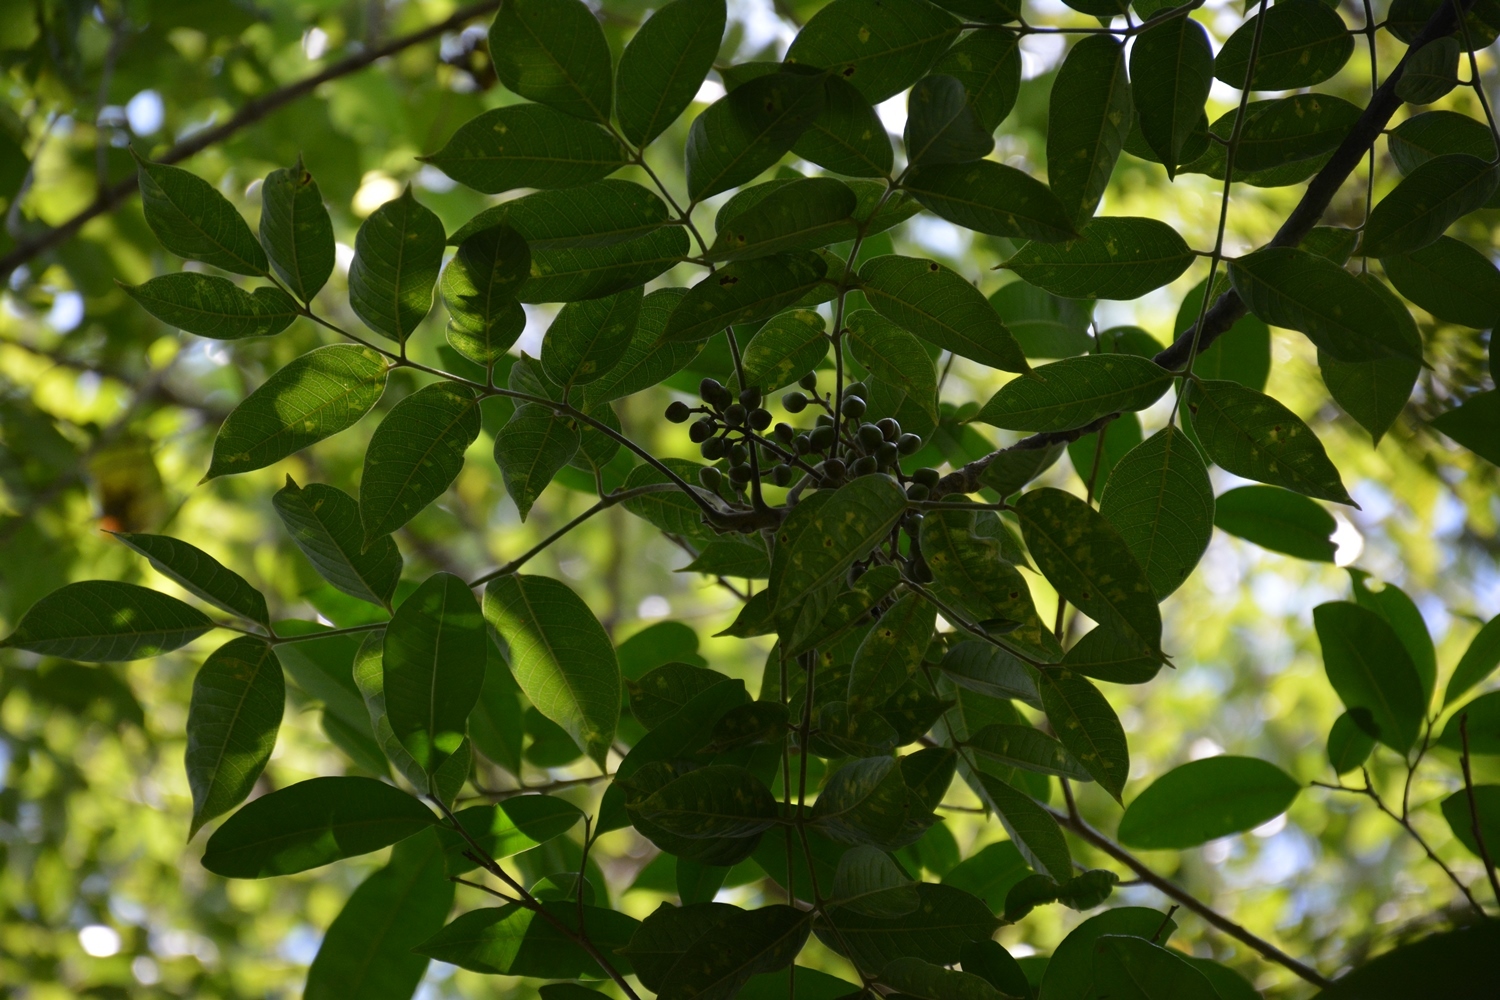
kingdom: Plantae
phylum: Tracheophyta
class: Magnoliopsida
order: Sapindales
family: Burseraceae
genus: Bursera
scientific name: Bursera simaruba
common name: Turpentine tree
